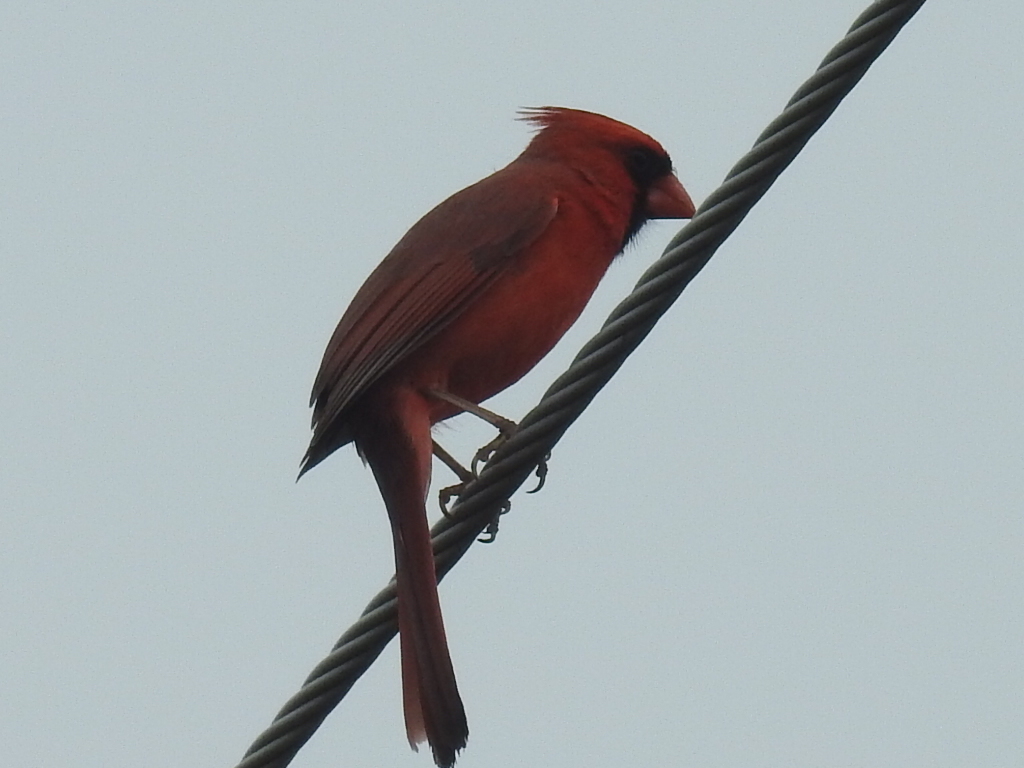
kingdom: Animalia
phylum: Chordata
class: Aves
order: Passeriformes
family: Cardinalidae
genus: Cardinalis
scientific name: Cardinalis cardinalis
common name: Northern cardinal
